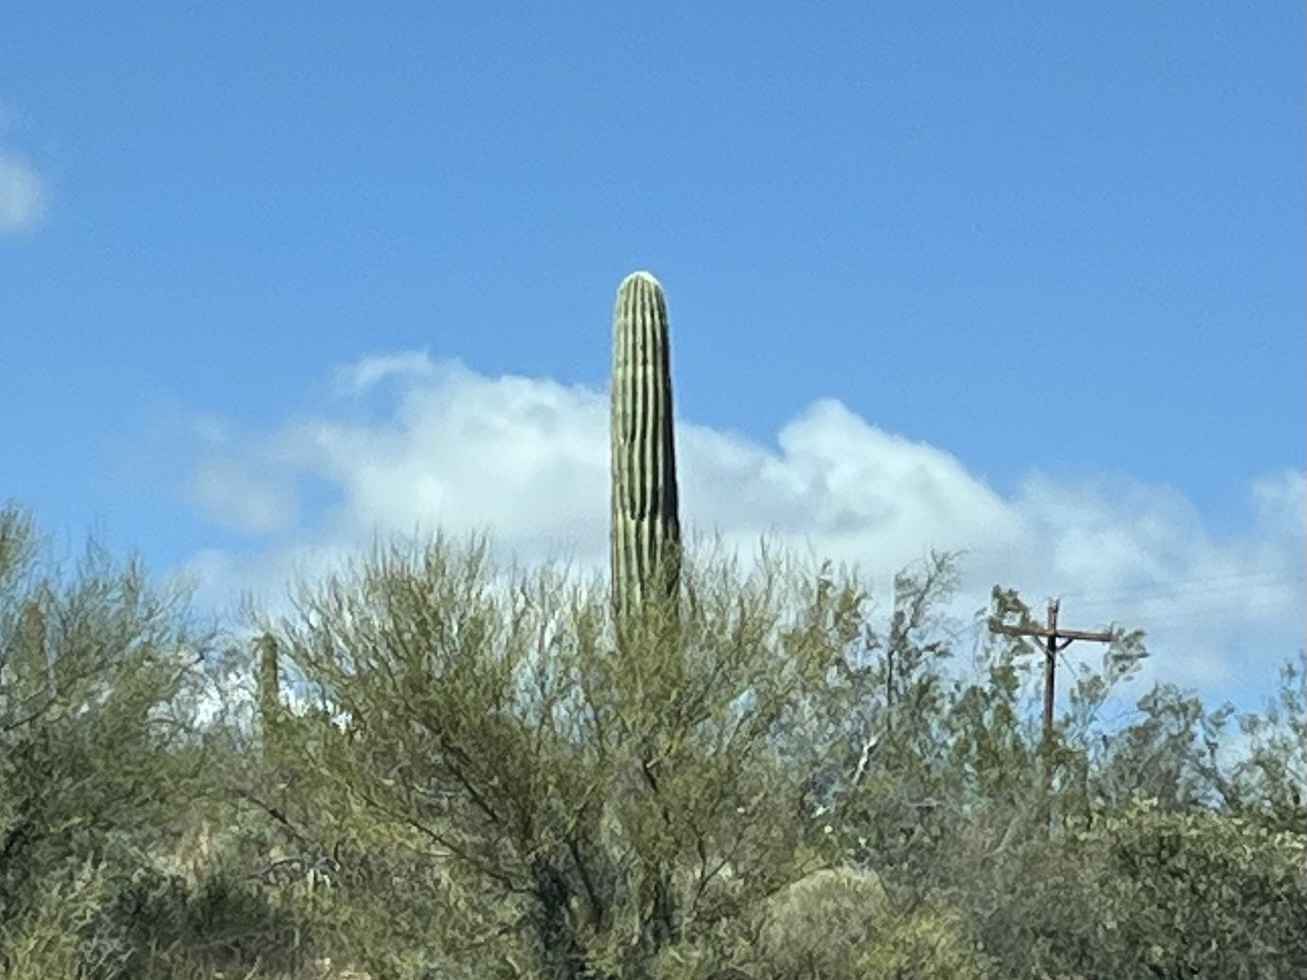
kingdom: Plantae
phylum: Tracheophyta
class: Magnoliopsida
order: Caryophyllales
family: Cactaceae
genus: Carnegiea
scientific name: Carnegiea gigantea
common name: Saguaro
